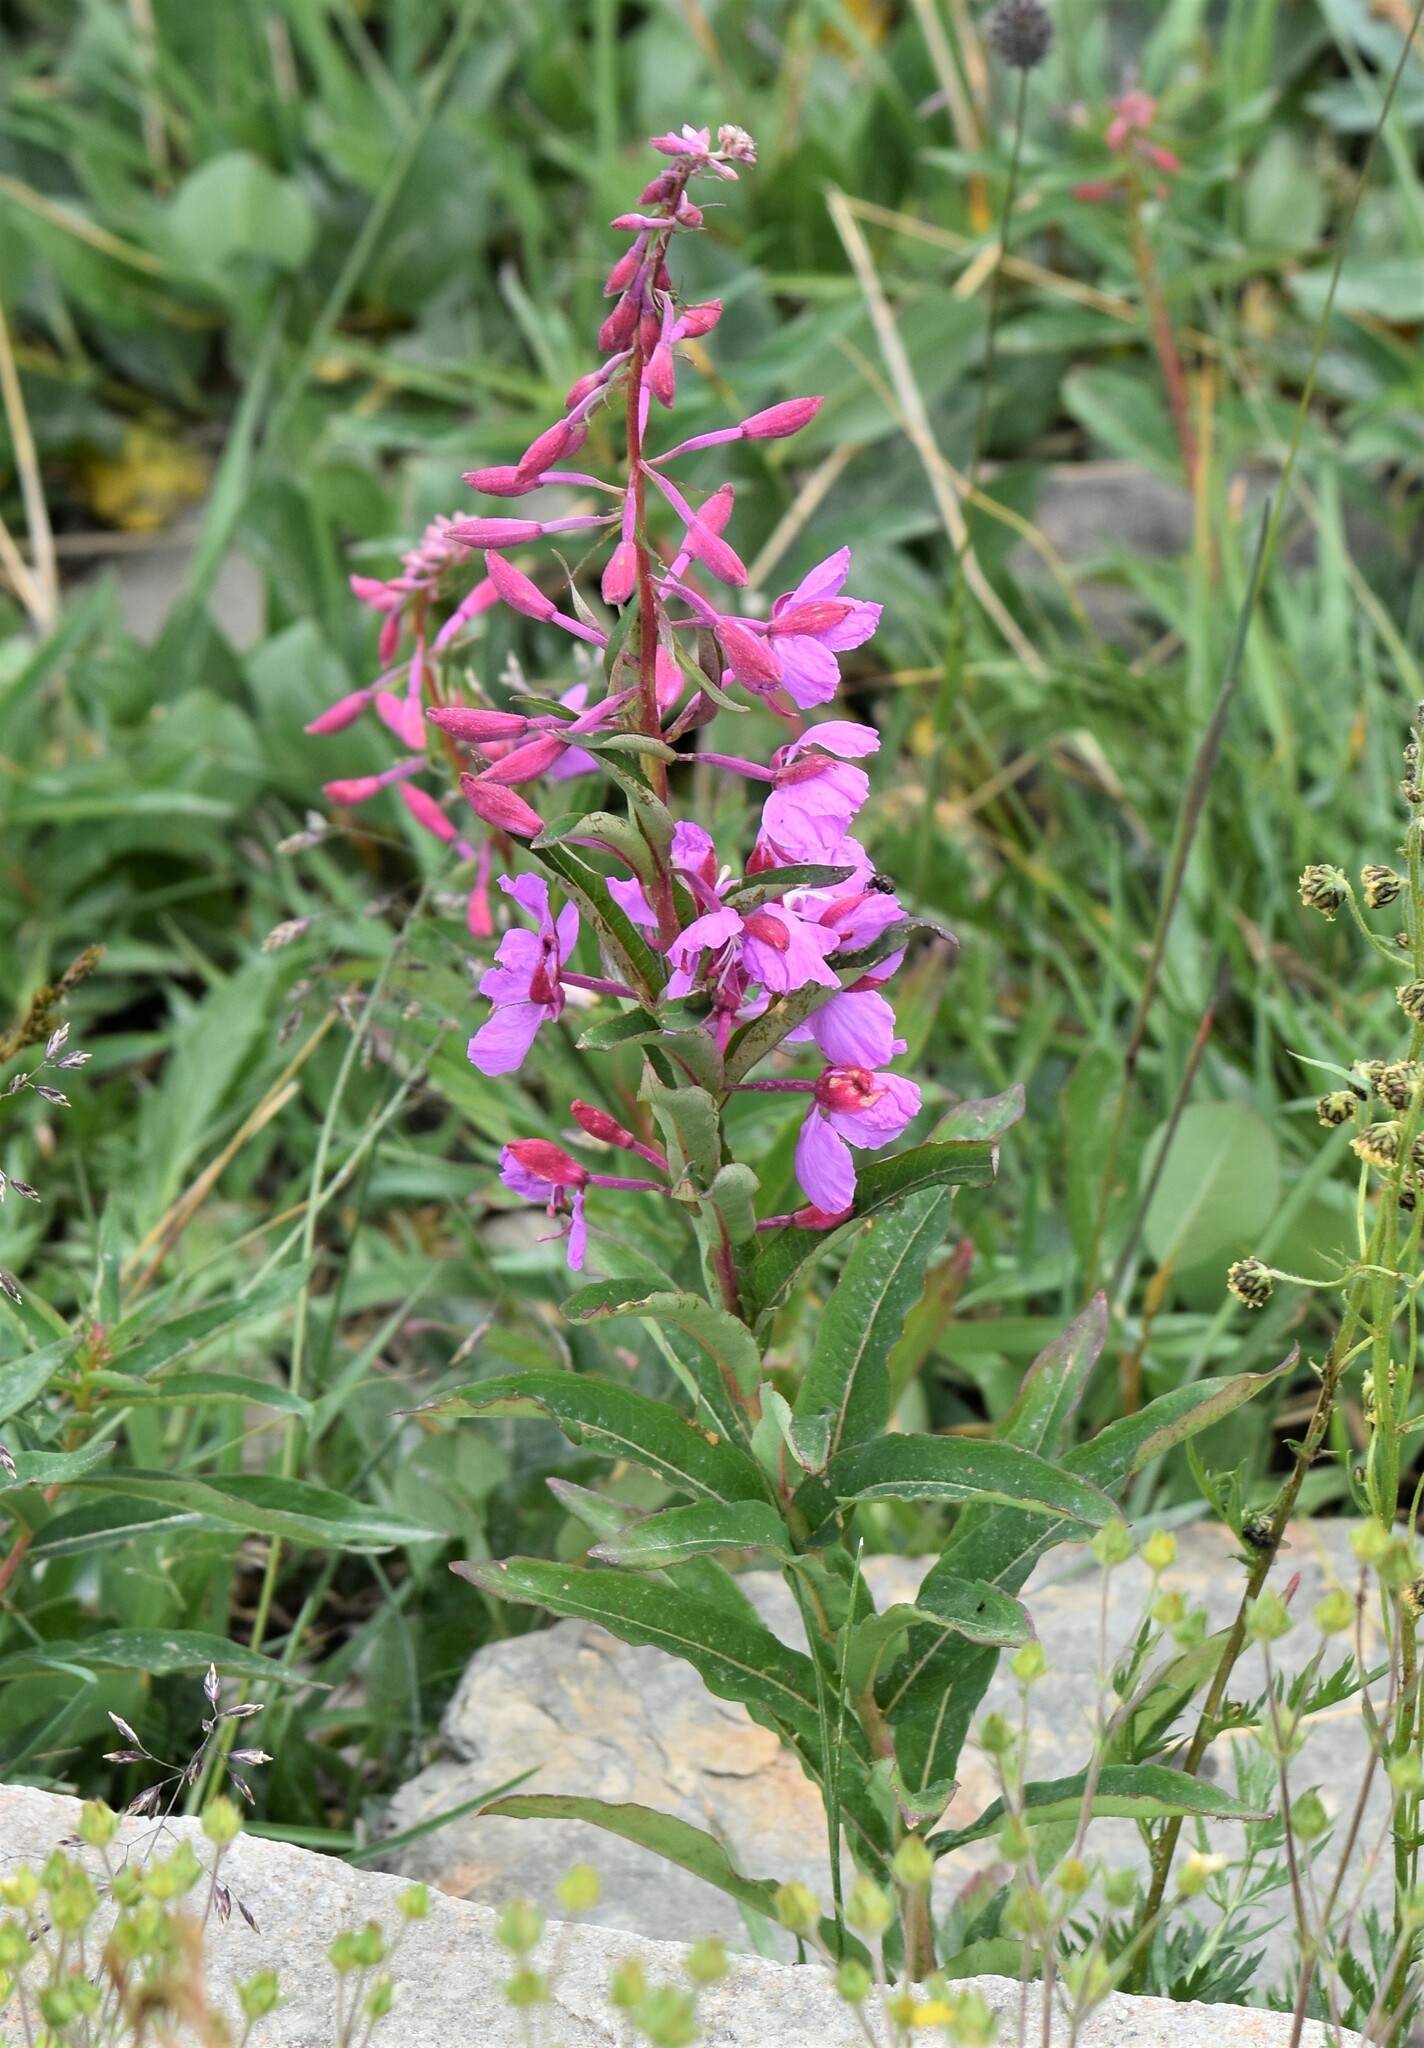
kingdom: Plantae
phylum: Tracheophyta
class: Magnoliopsida
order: Myrtales
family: Onagraceae
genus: Chamaenerion
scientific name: Chamaenerion angustifolium
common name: Fireweed
